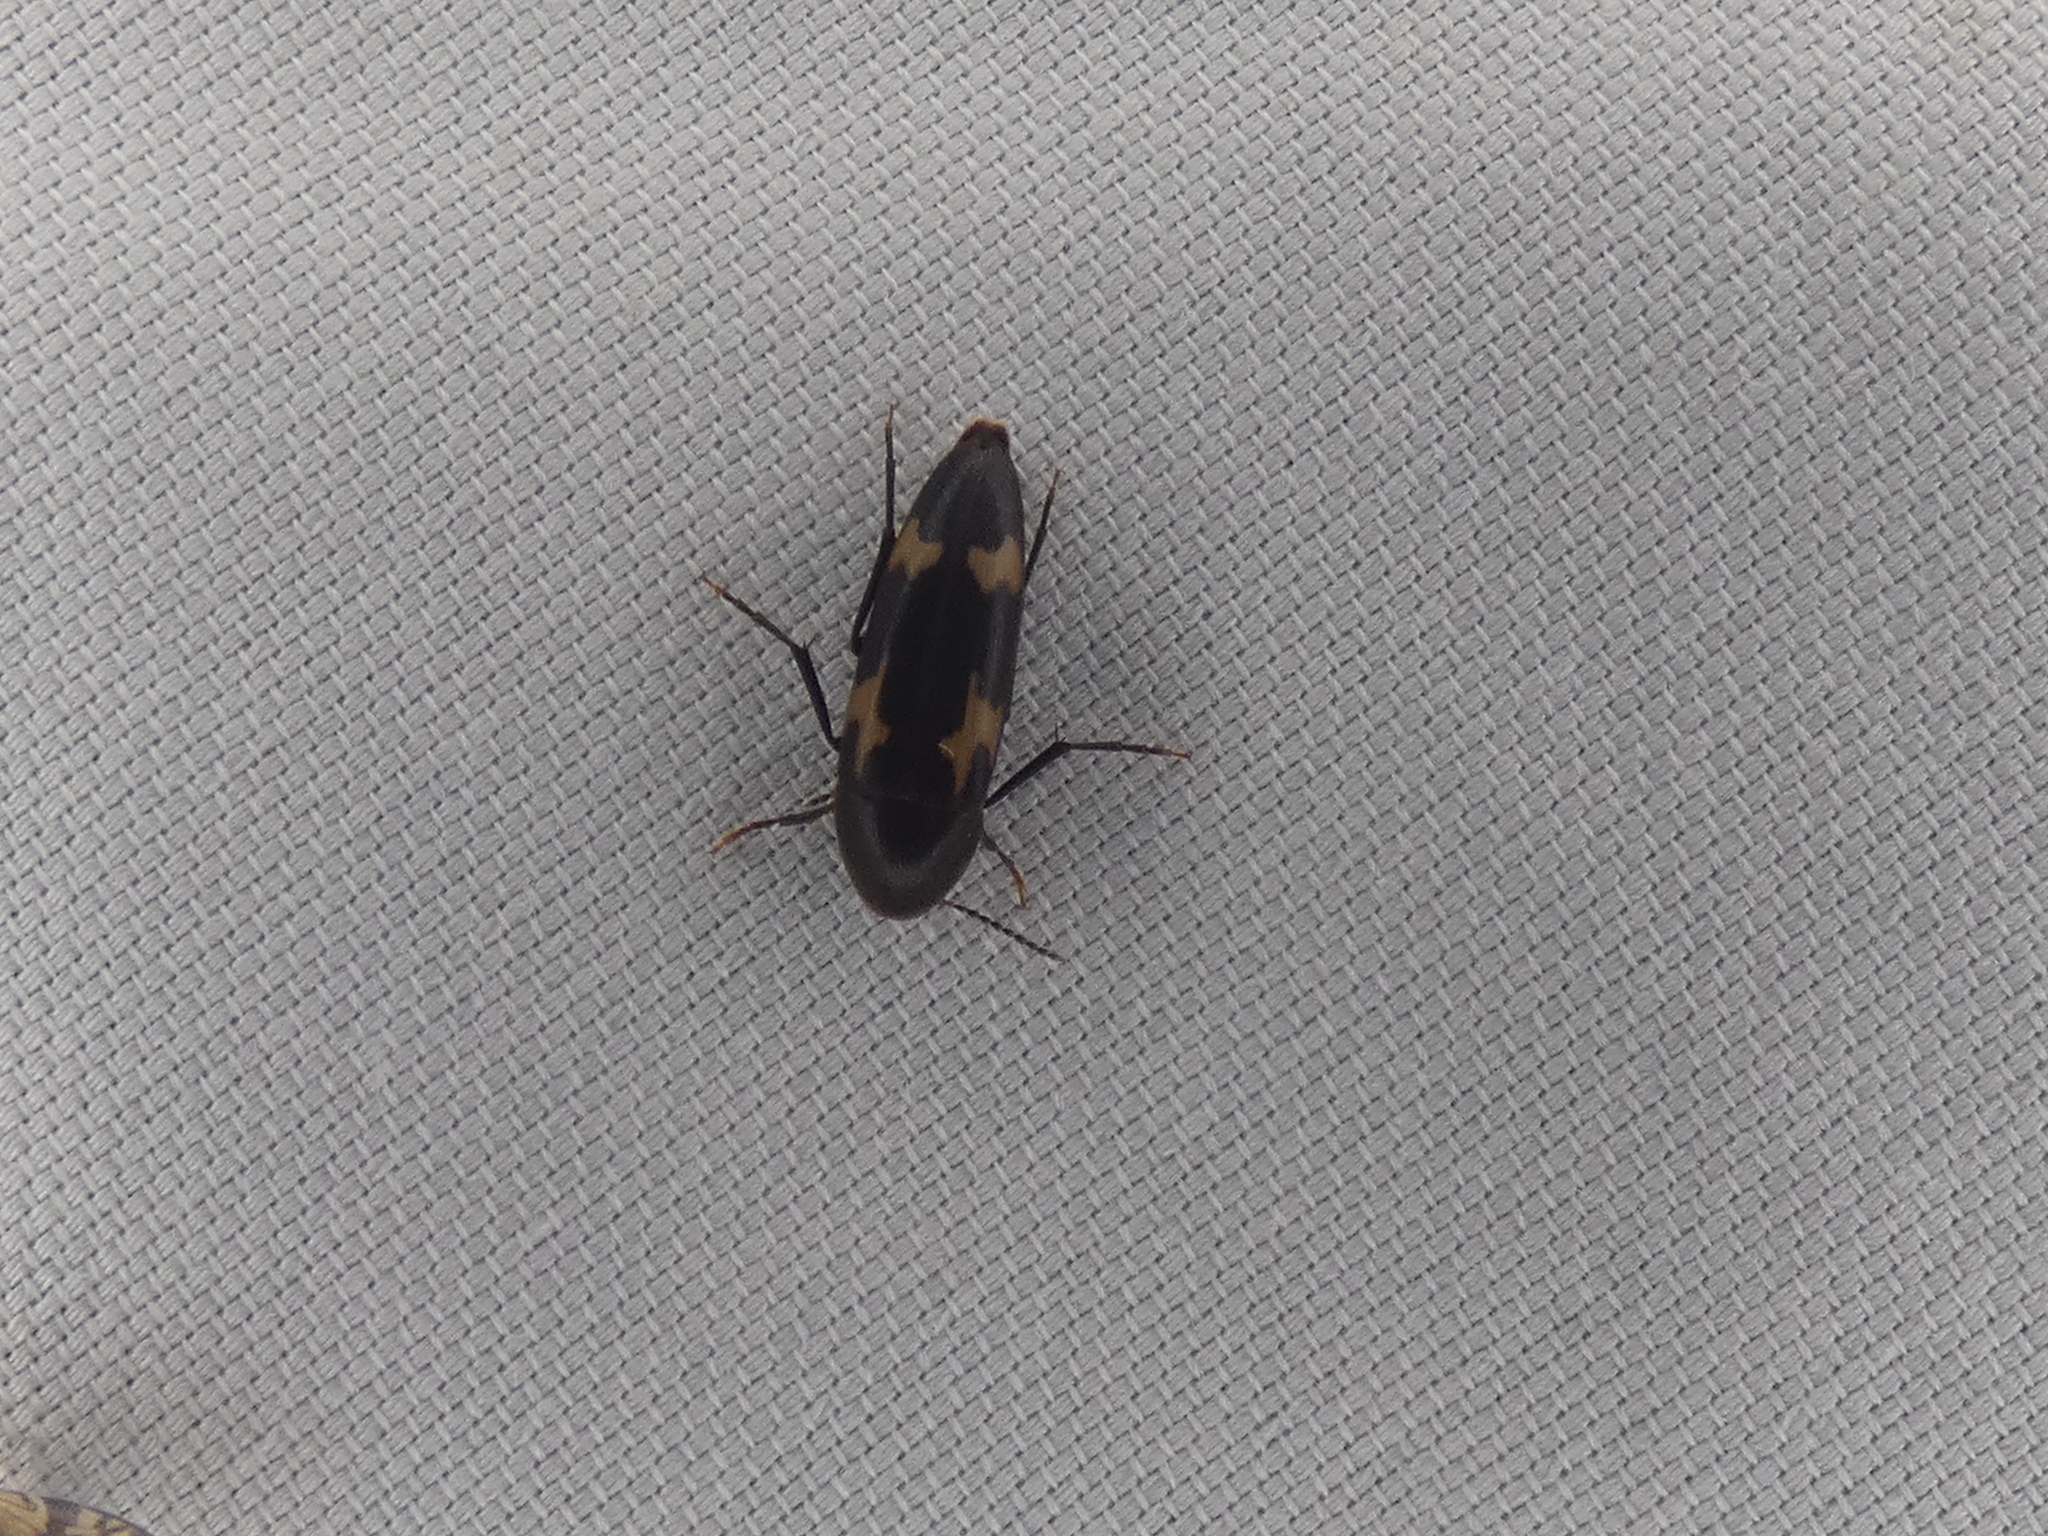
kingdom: Animalia
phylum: Arthropoda
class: Insecta
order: Coleoptera
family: Melandryidae
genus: Dircaea
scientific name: Dircaea liturata
